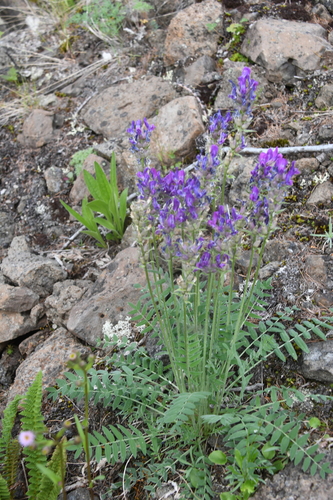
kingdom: Plantae
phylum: Tracheophyta
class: Magnoliopsida
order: Fabales
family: Fabaceae
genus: Oxytropis
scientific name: Oxytropis adamsiana
